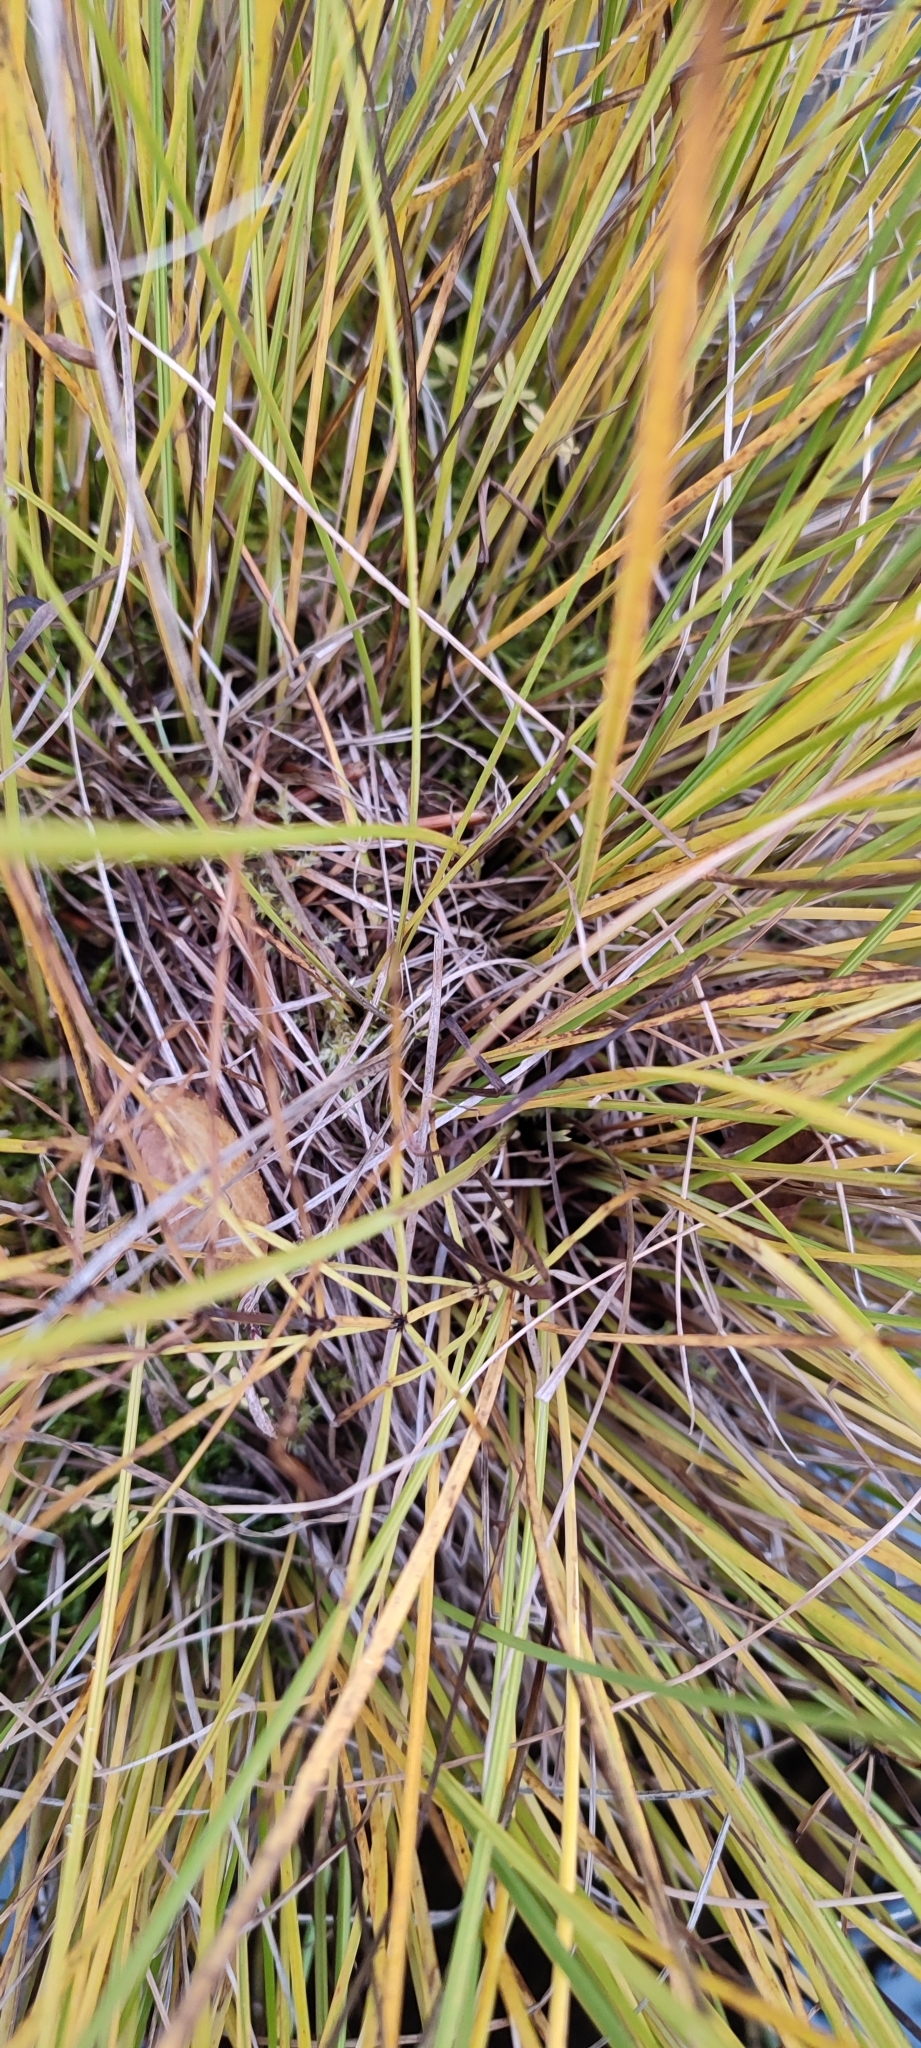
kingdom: Plantae
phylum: Tracheophyta
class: Liliopsida
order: Poales
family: Cyperaceae
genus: Carex
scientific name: Carex saxatilis
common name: Russet sedge
